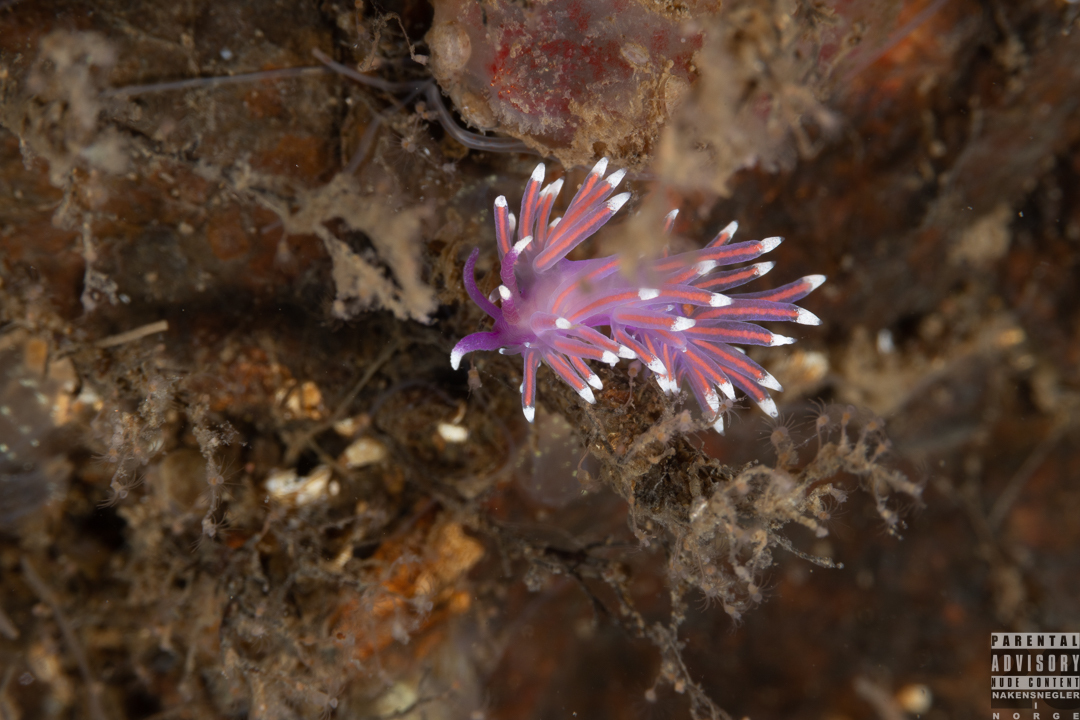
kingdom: Animalia
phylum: Mollusca
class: Gastropoda
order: Nudibranchia
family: Flabellinidae
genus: Edmundsella
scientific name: Edmundsella pedata
